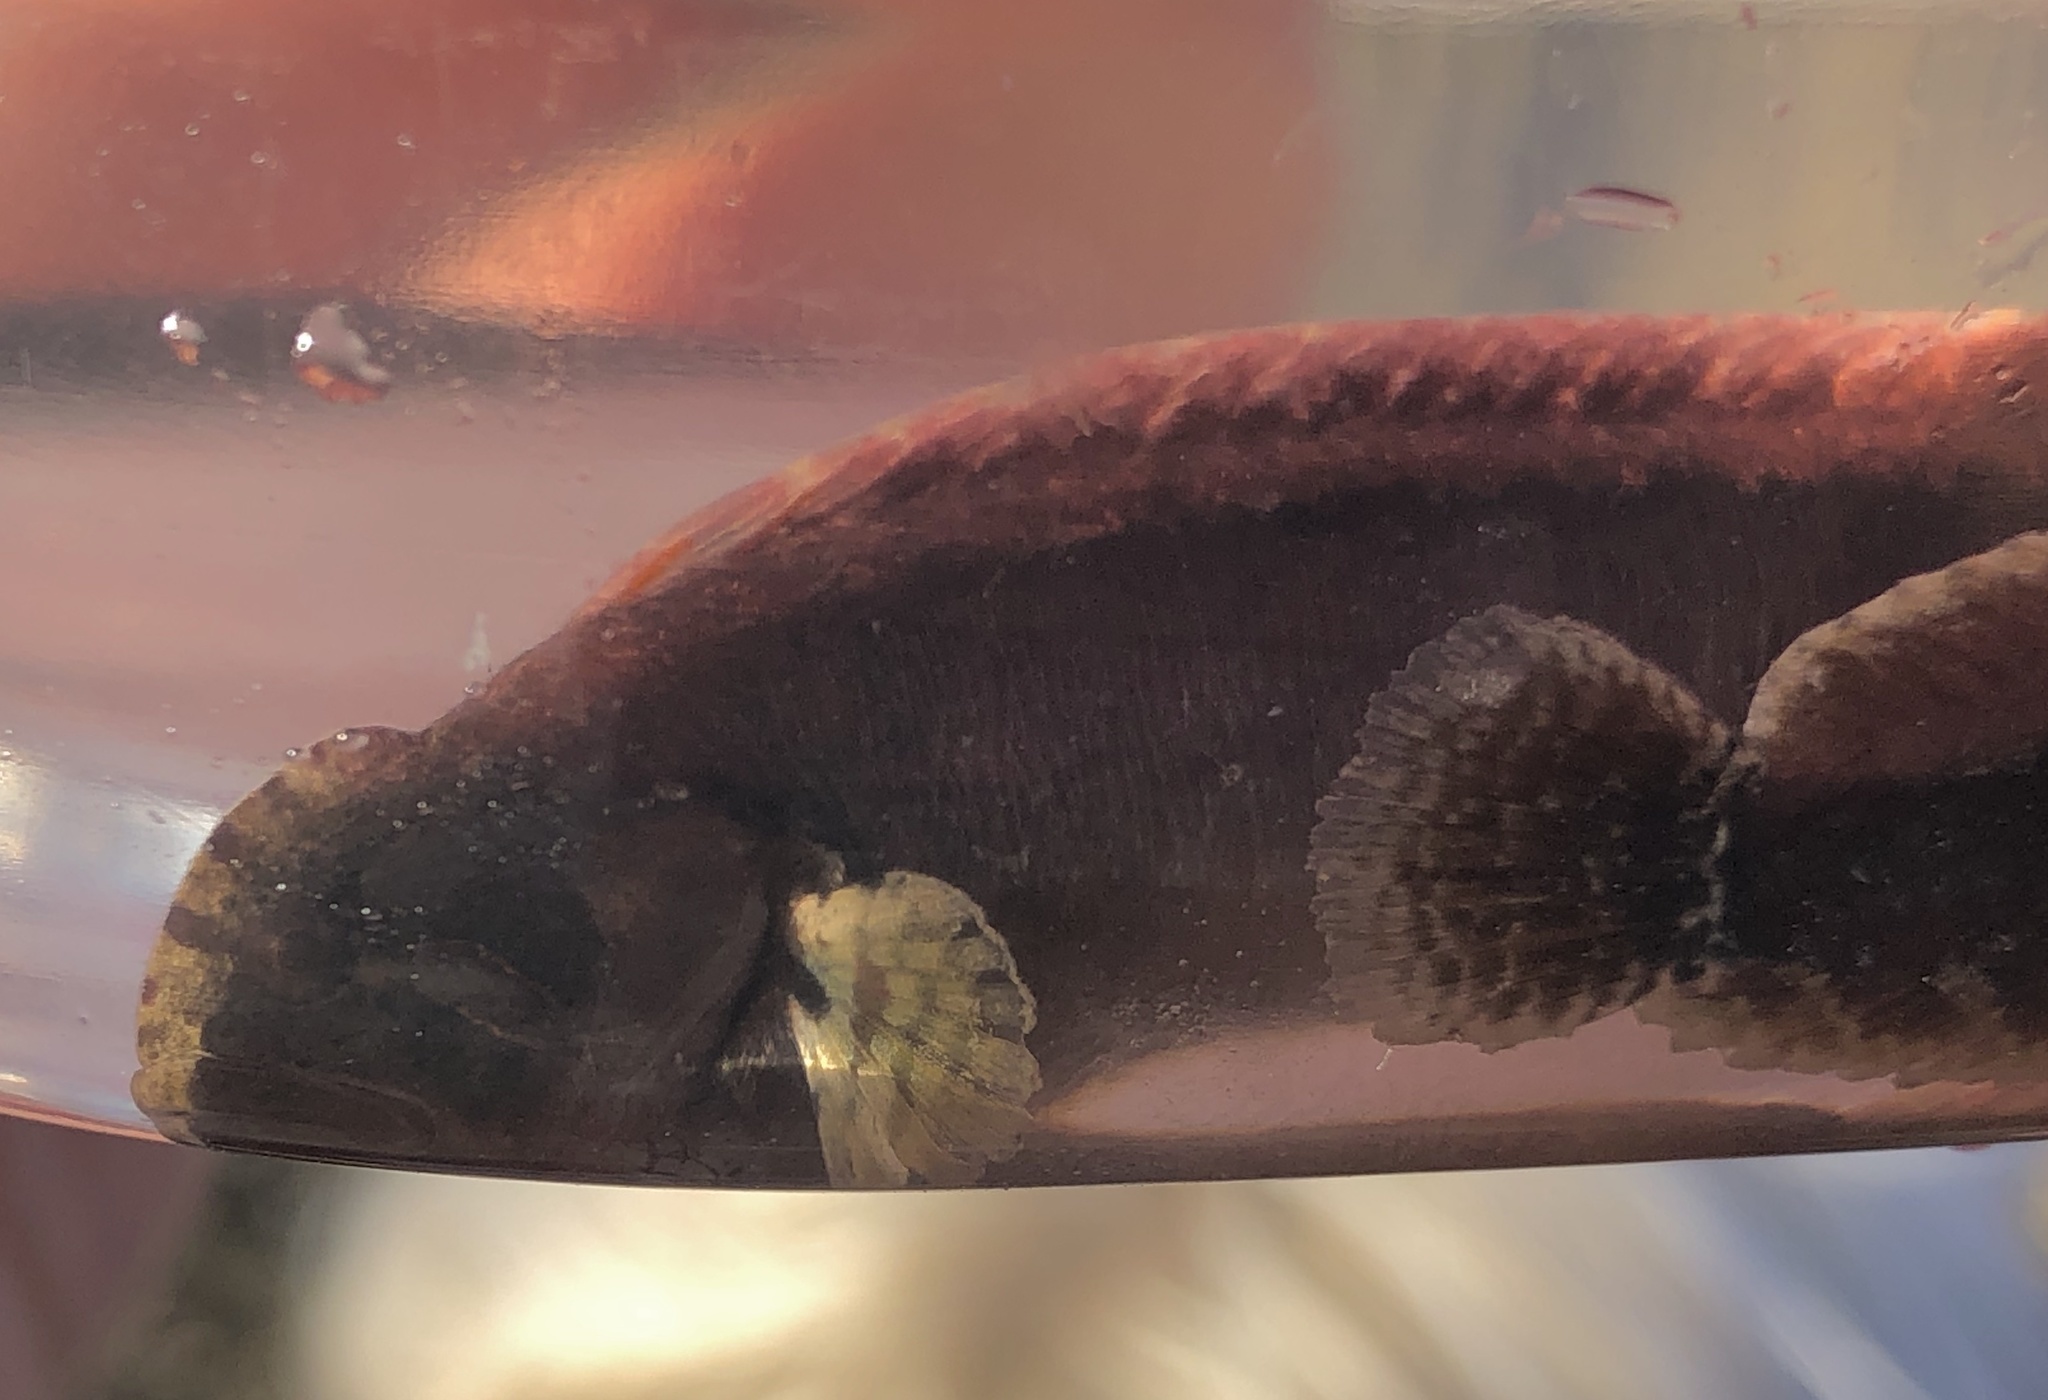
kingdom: Animalia
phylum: Chordata
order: Perciformes
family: Stichaeidae
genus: Anoplarchus
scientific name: Anoplarchus purpurescens
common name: High cockscomb
